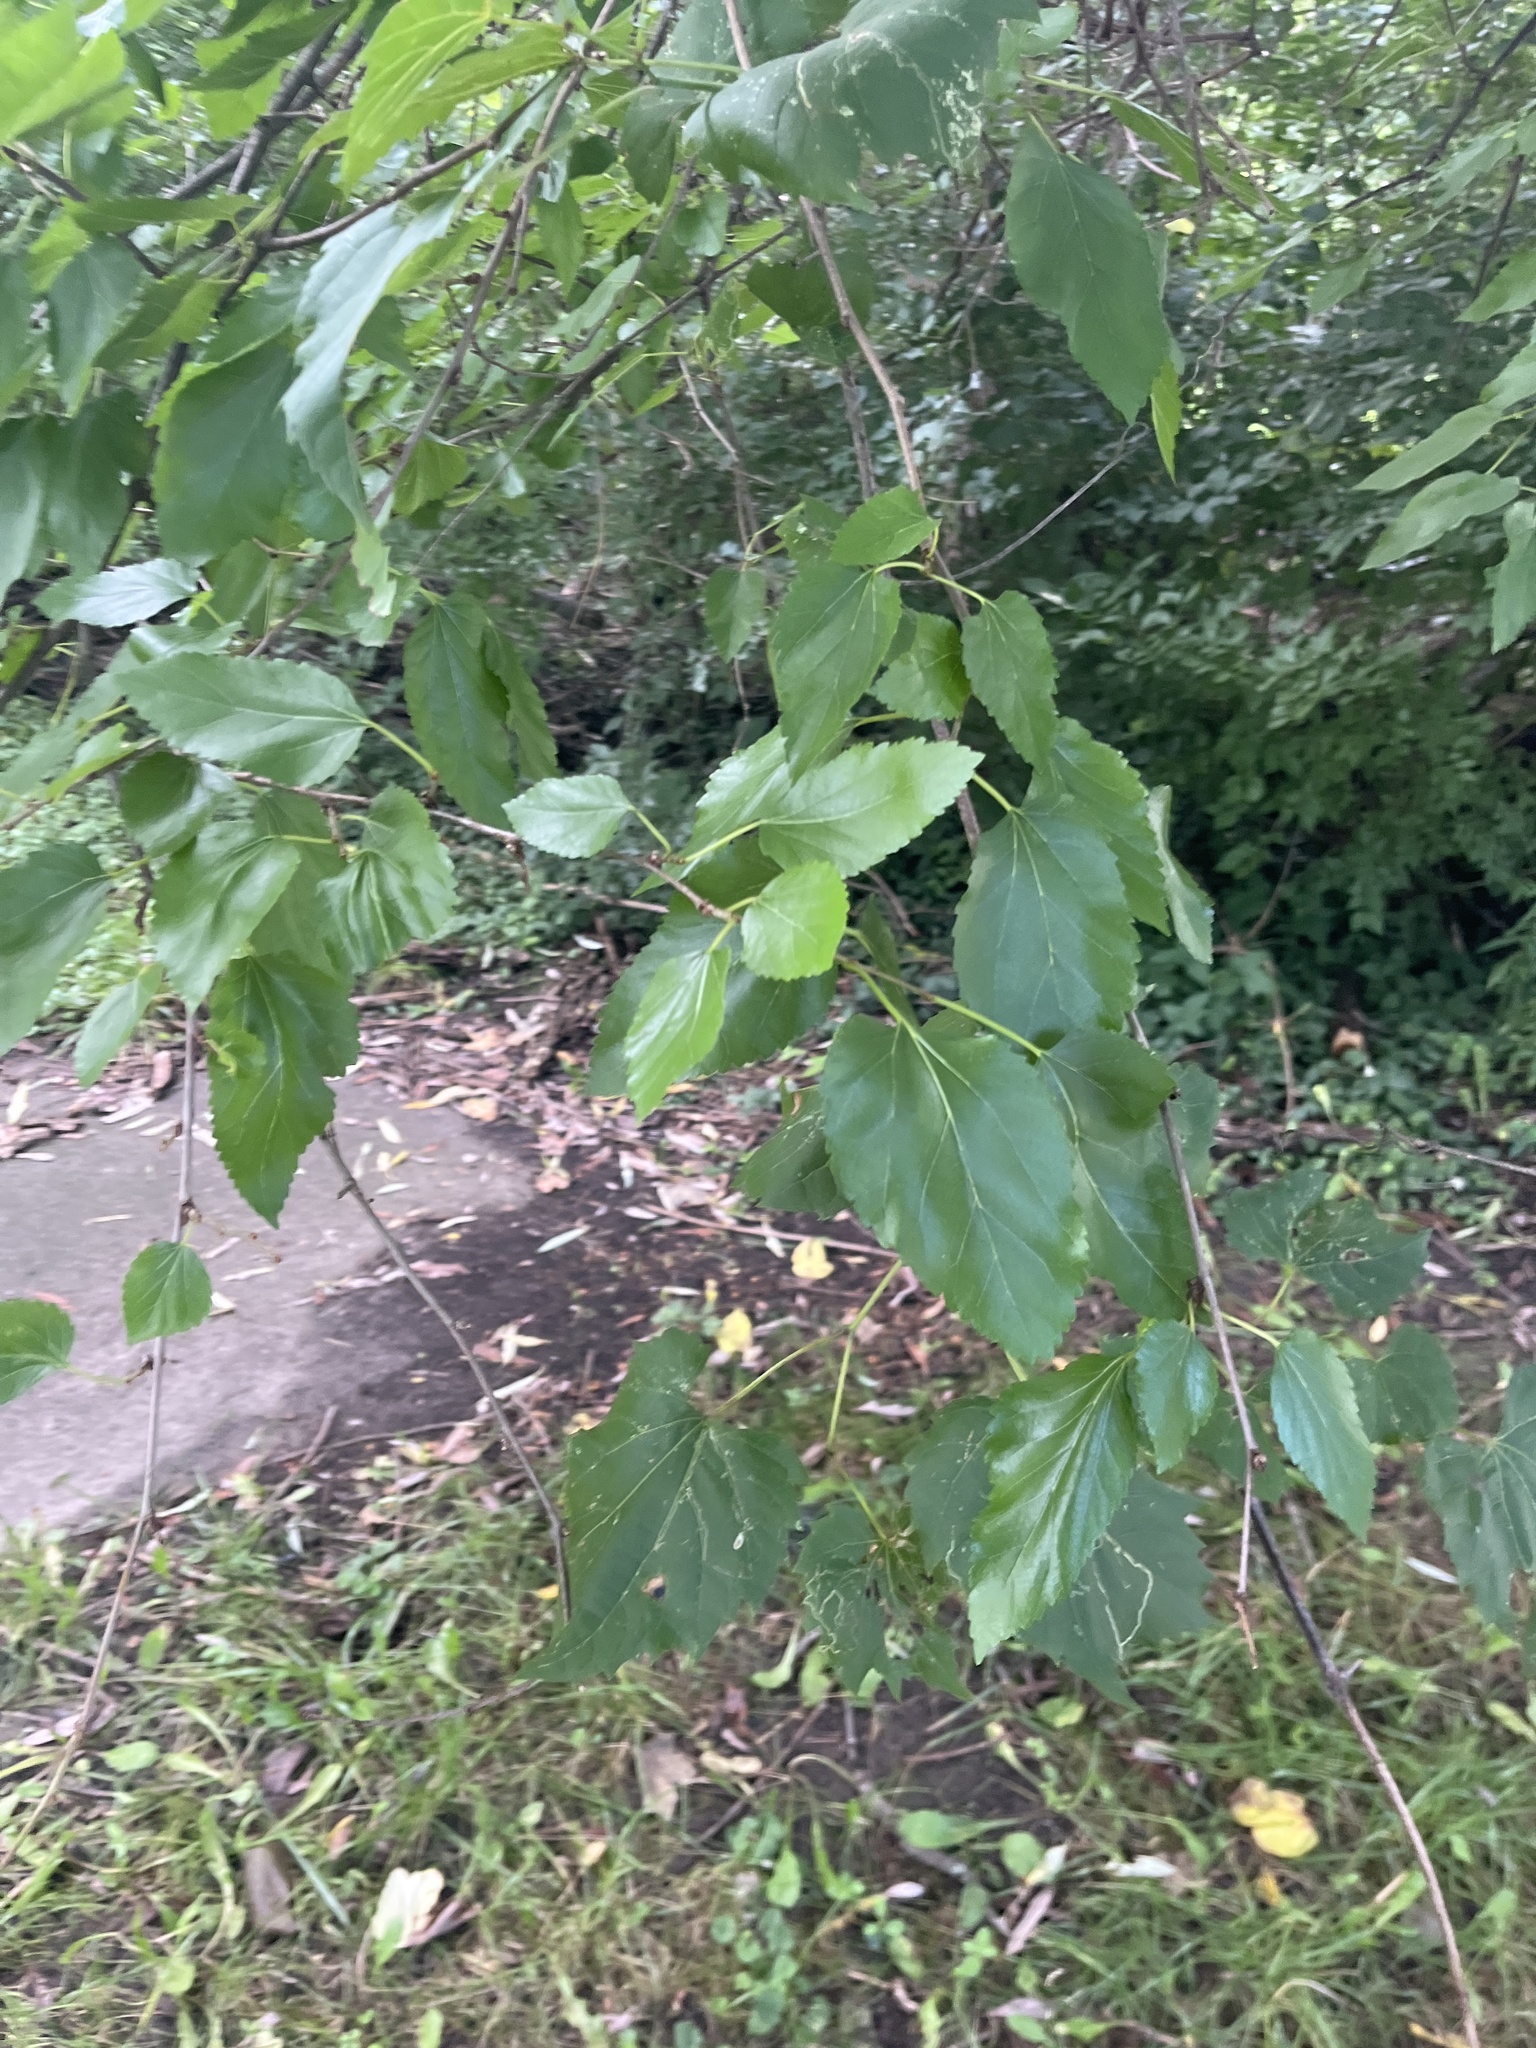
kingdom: Plantae
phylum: Tracheophyta
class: Magnoliopsida
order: Rosales
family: Moraceae
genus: Morus
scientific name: Morus alba
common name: White mulberry
